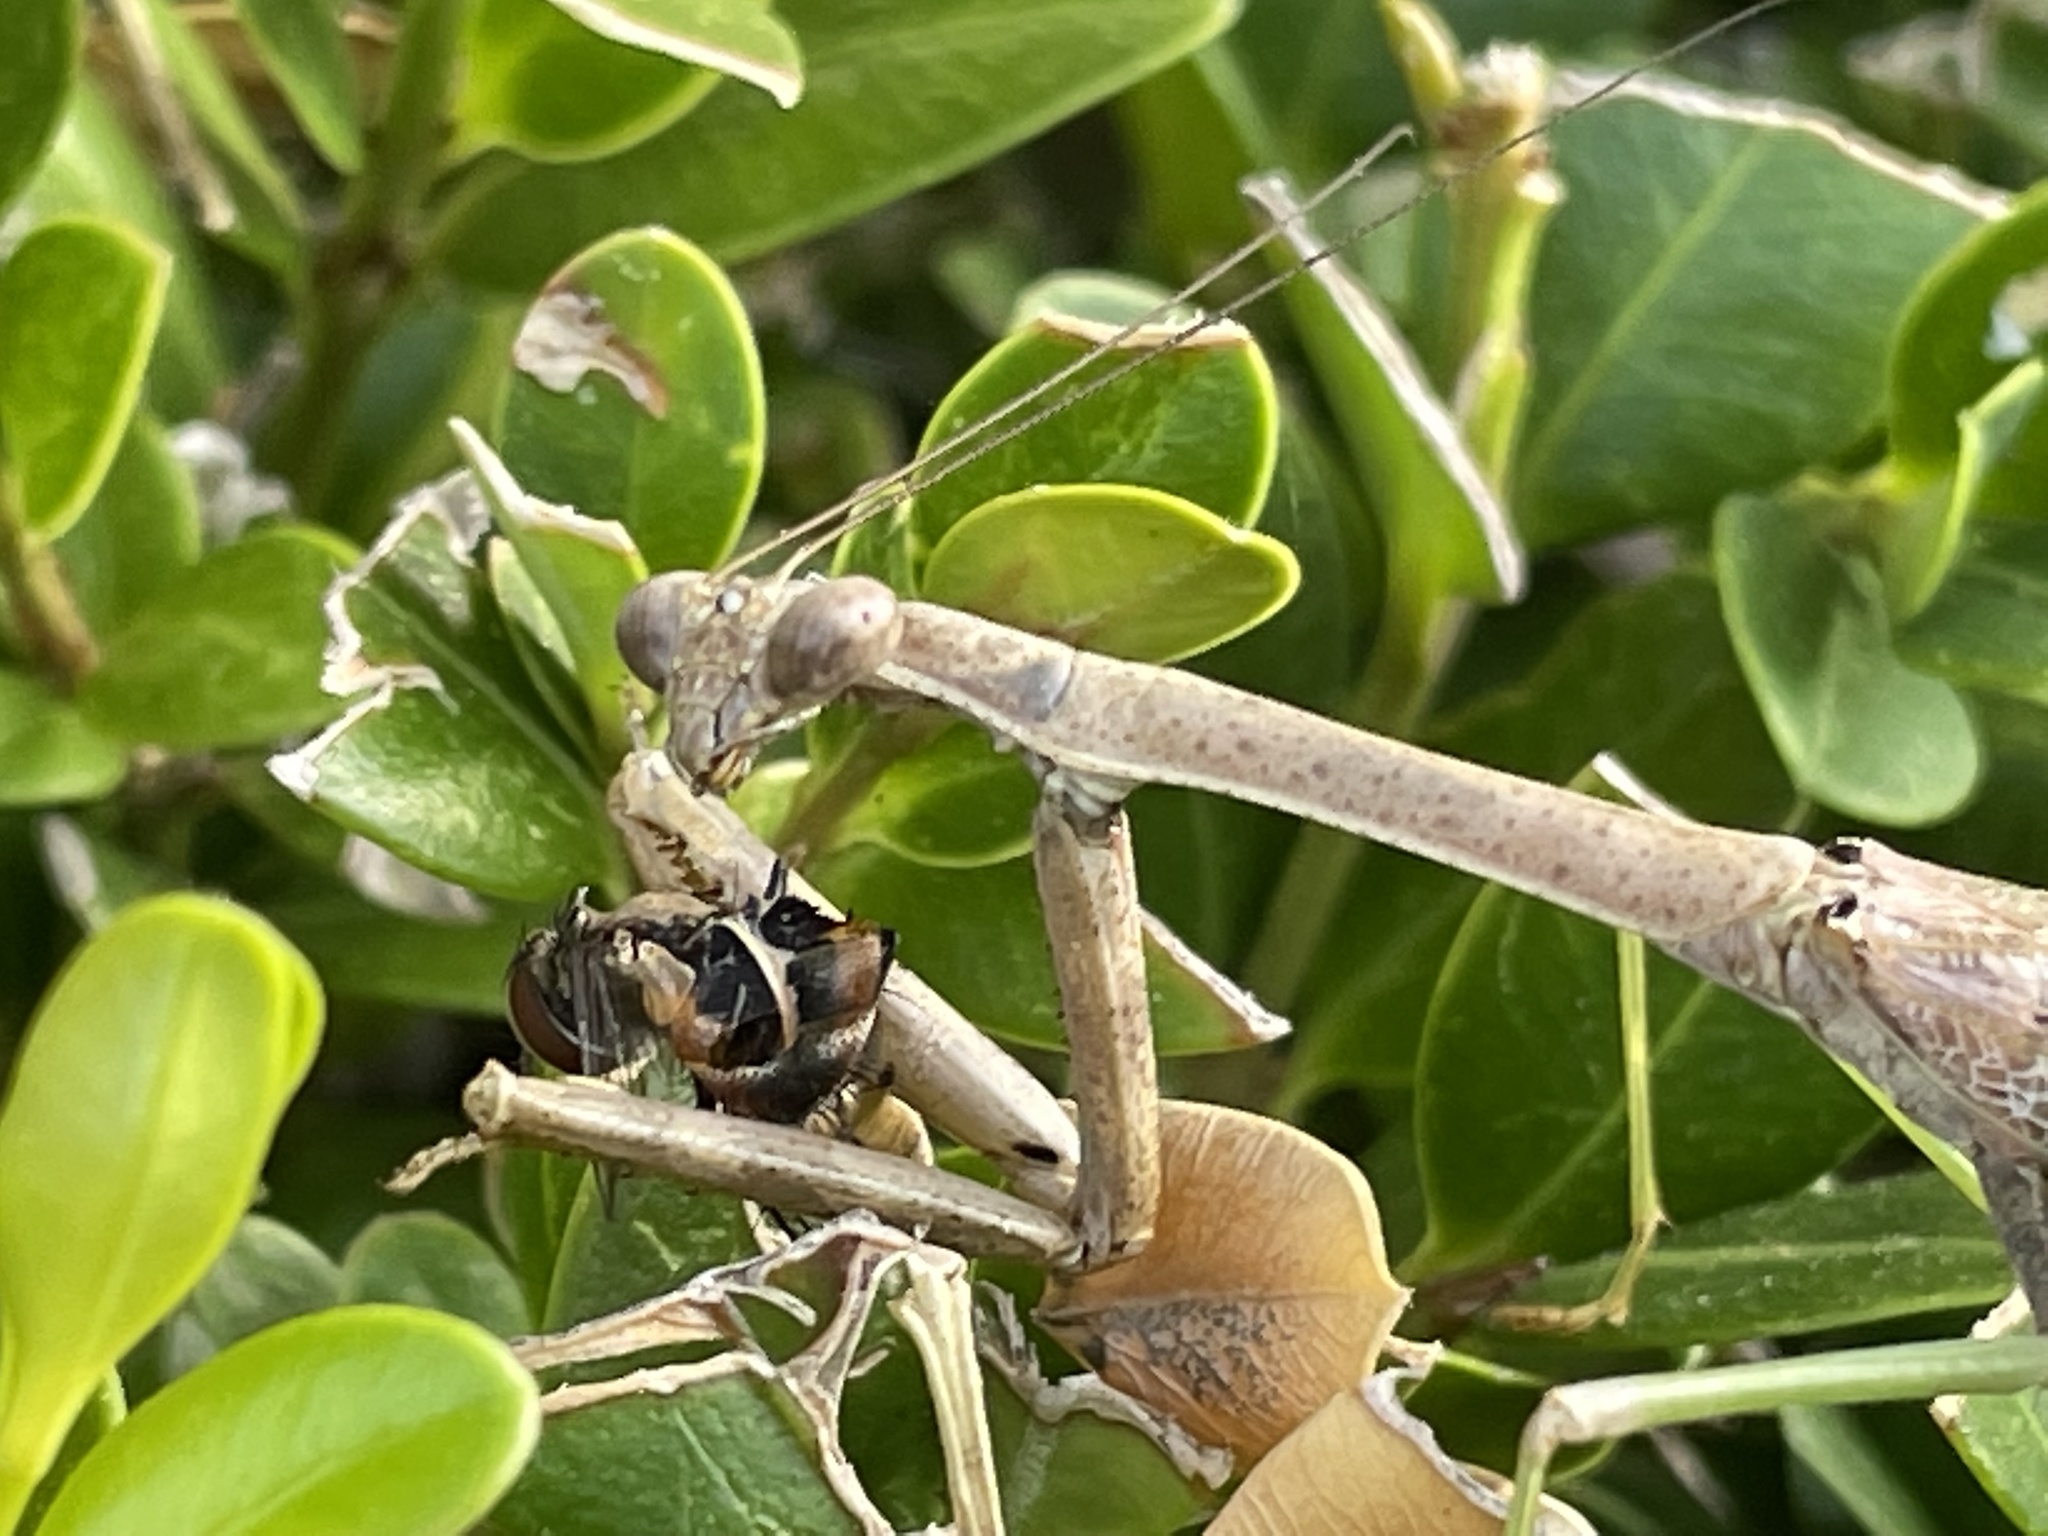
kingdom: Animalia
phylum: Arthropoda
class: Insecta
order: Mantodea
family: Mantidae
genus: Stagmomantis
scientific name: Stagmomantis carolina
